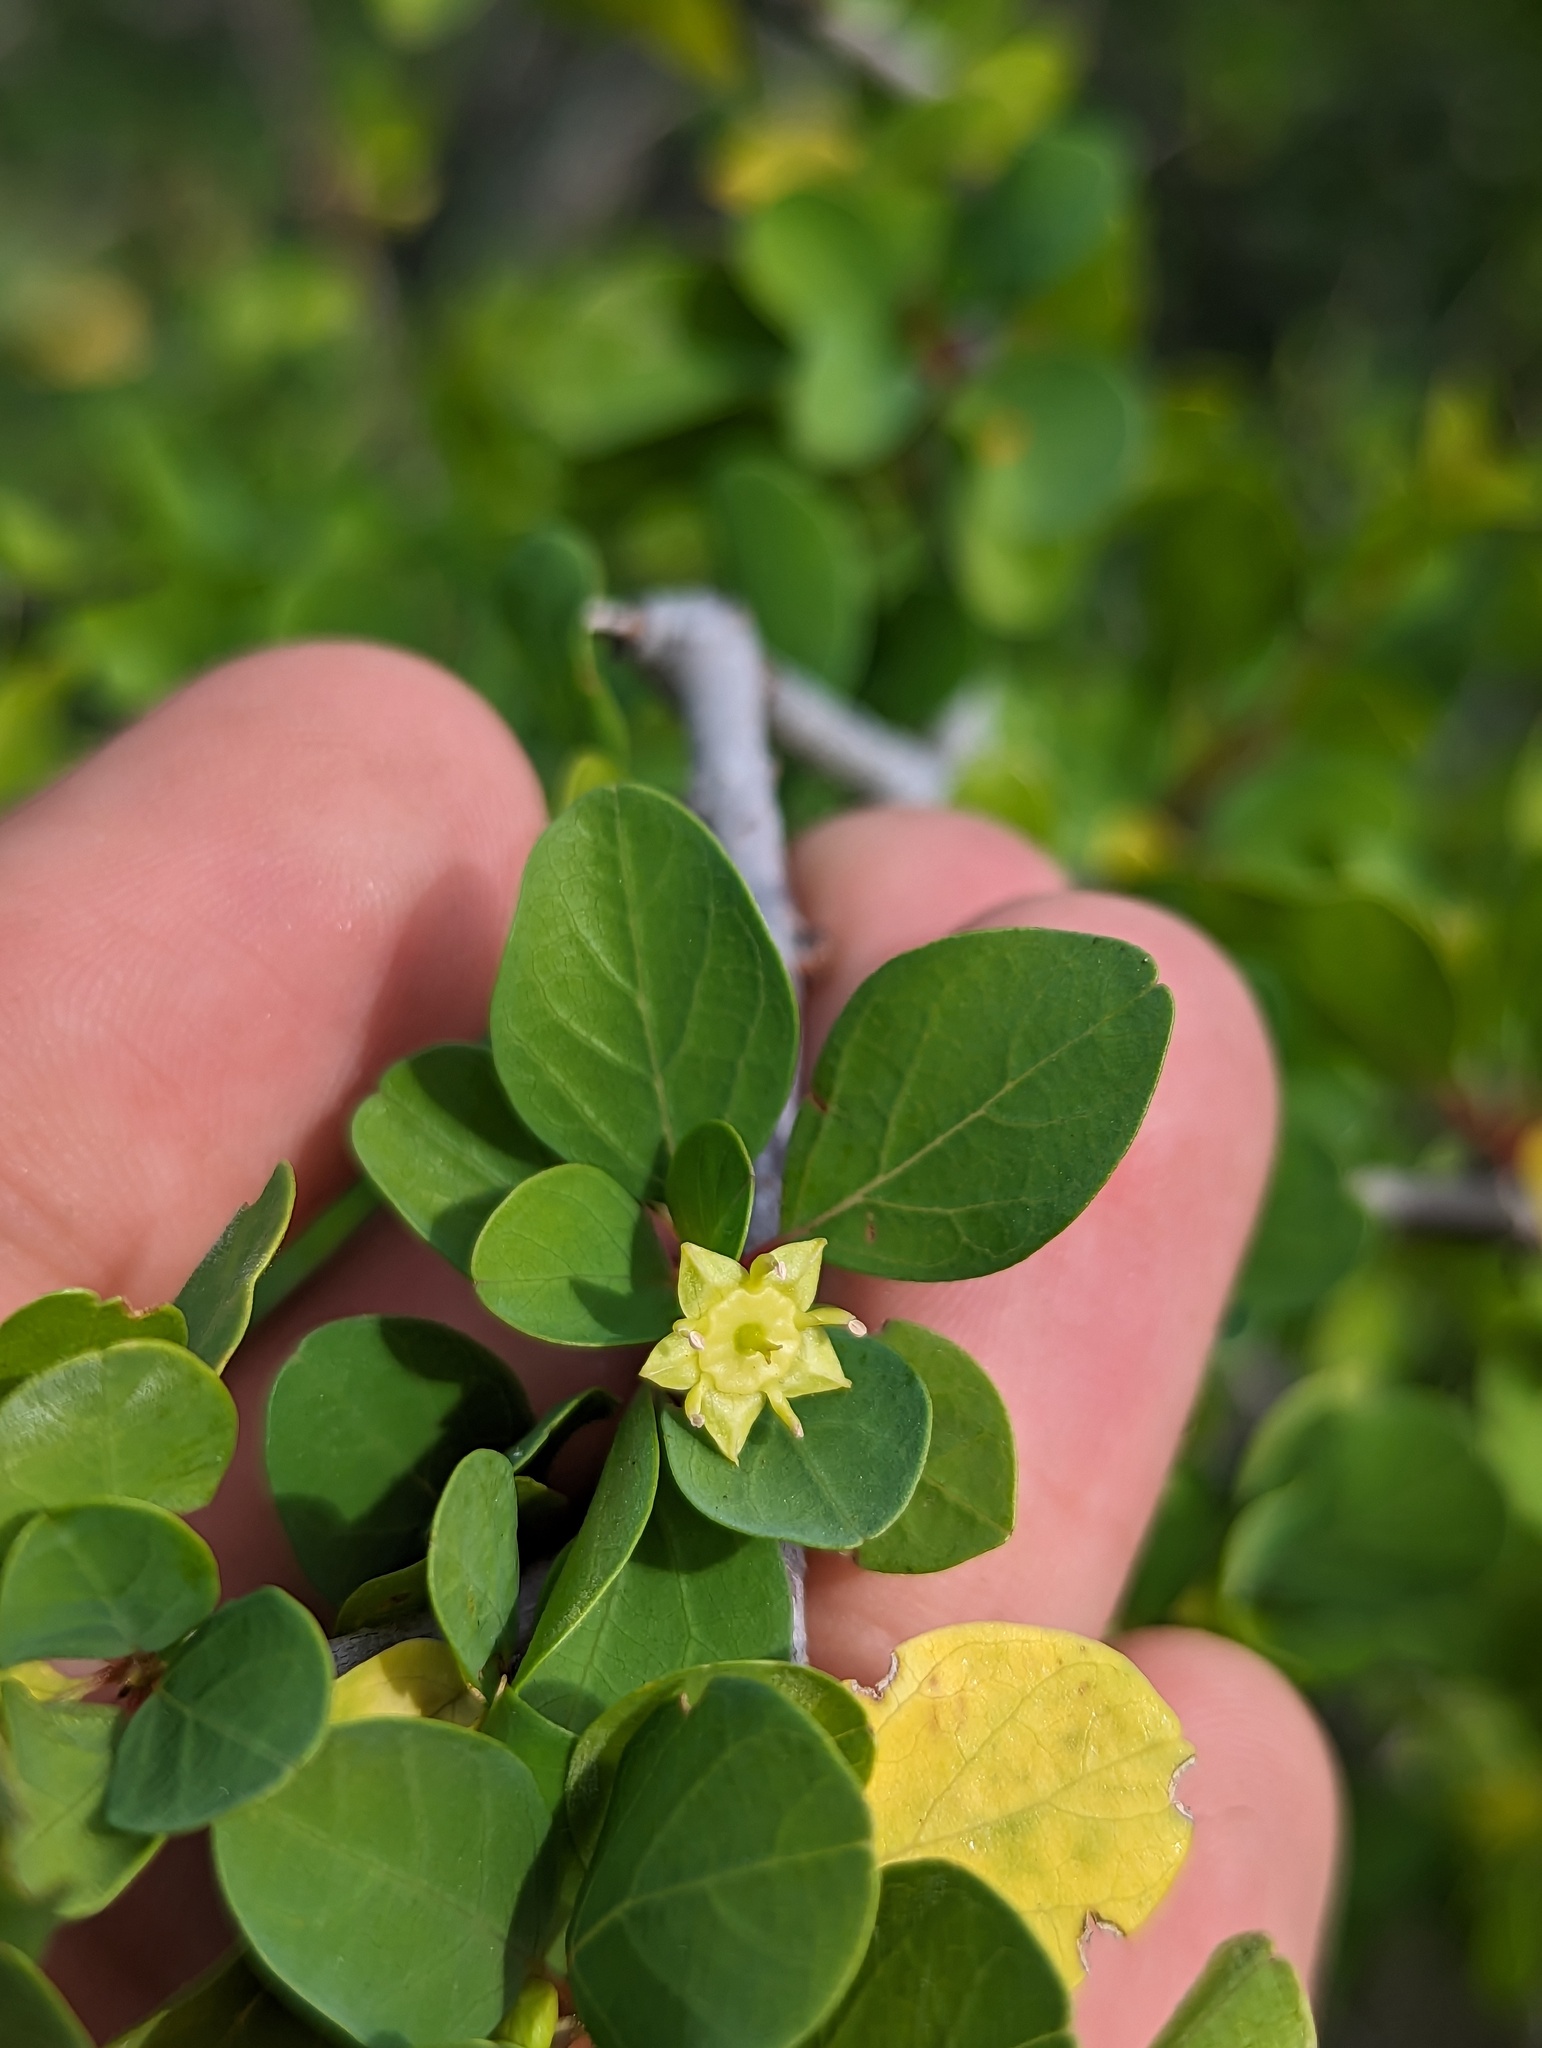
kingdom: Plantae
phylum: Tracheophyta
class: Magnoliopsida
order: Rosales
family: Rhamnaceae
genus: Colubrina
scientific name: Colubrina viridis
